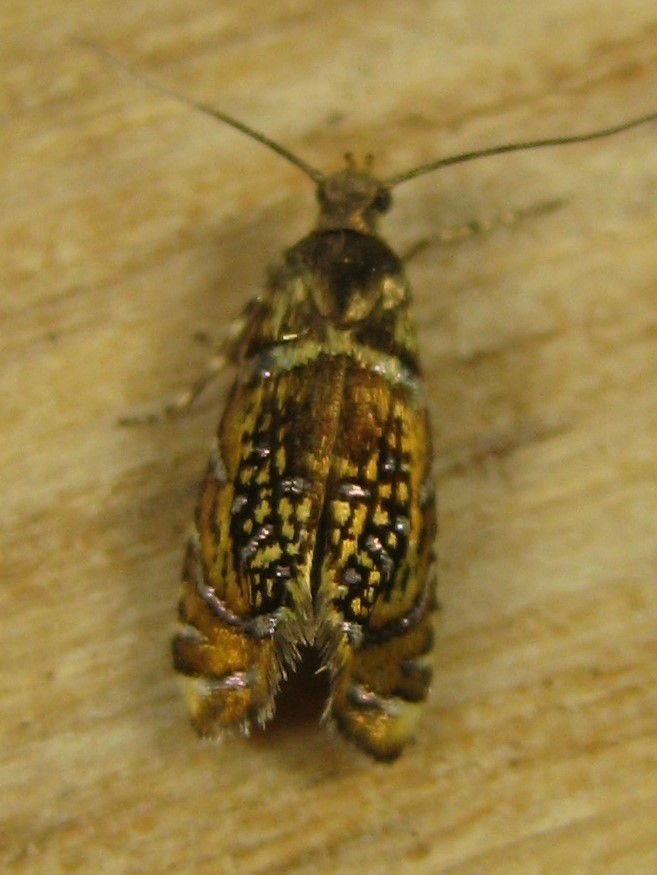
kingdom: Animalia
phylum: Arthropoda
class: Insecta
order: Lepidoptera
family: Glyphipterigidae
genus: Glyphipterix
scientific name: Glyphipterix quadragintapunctata
